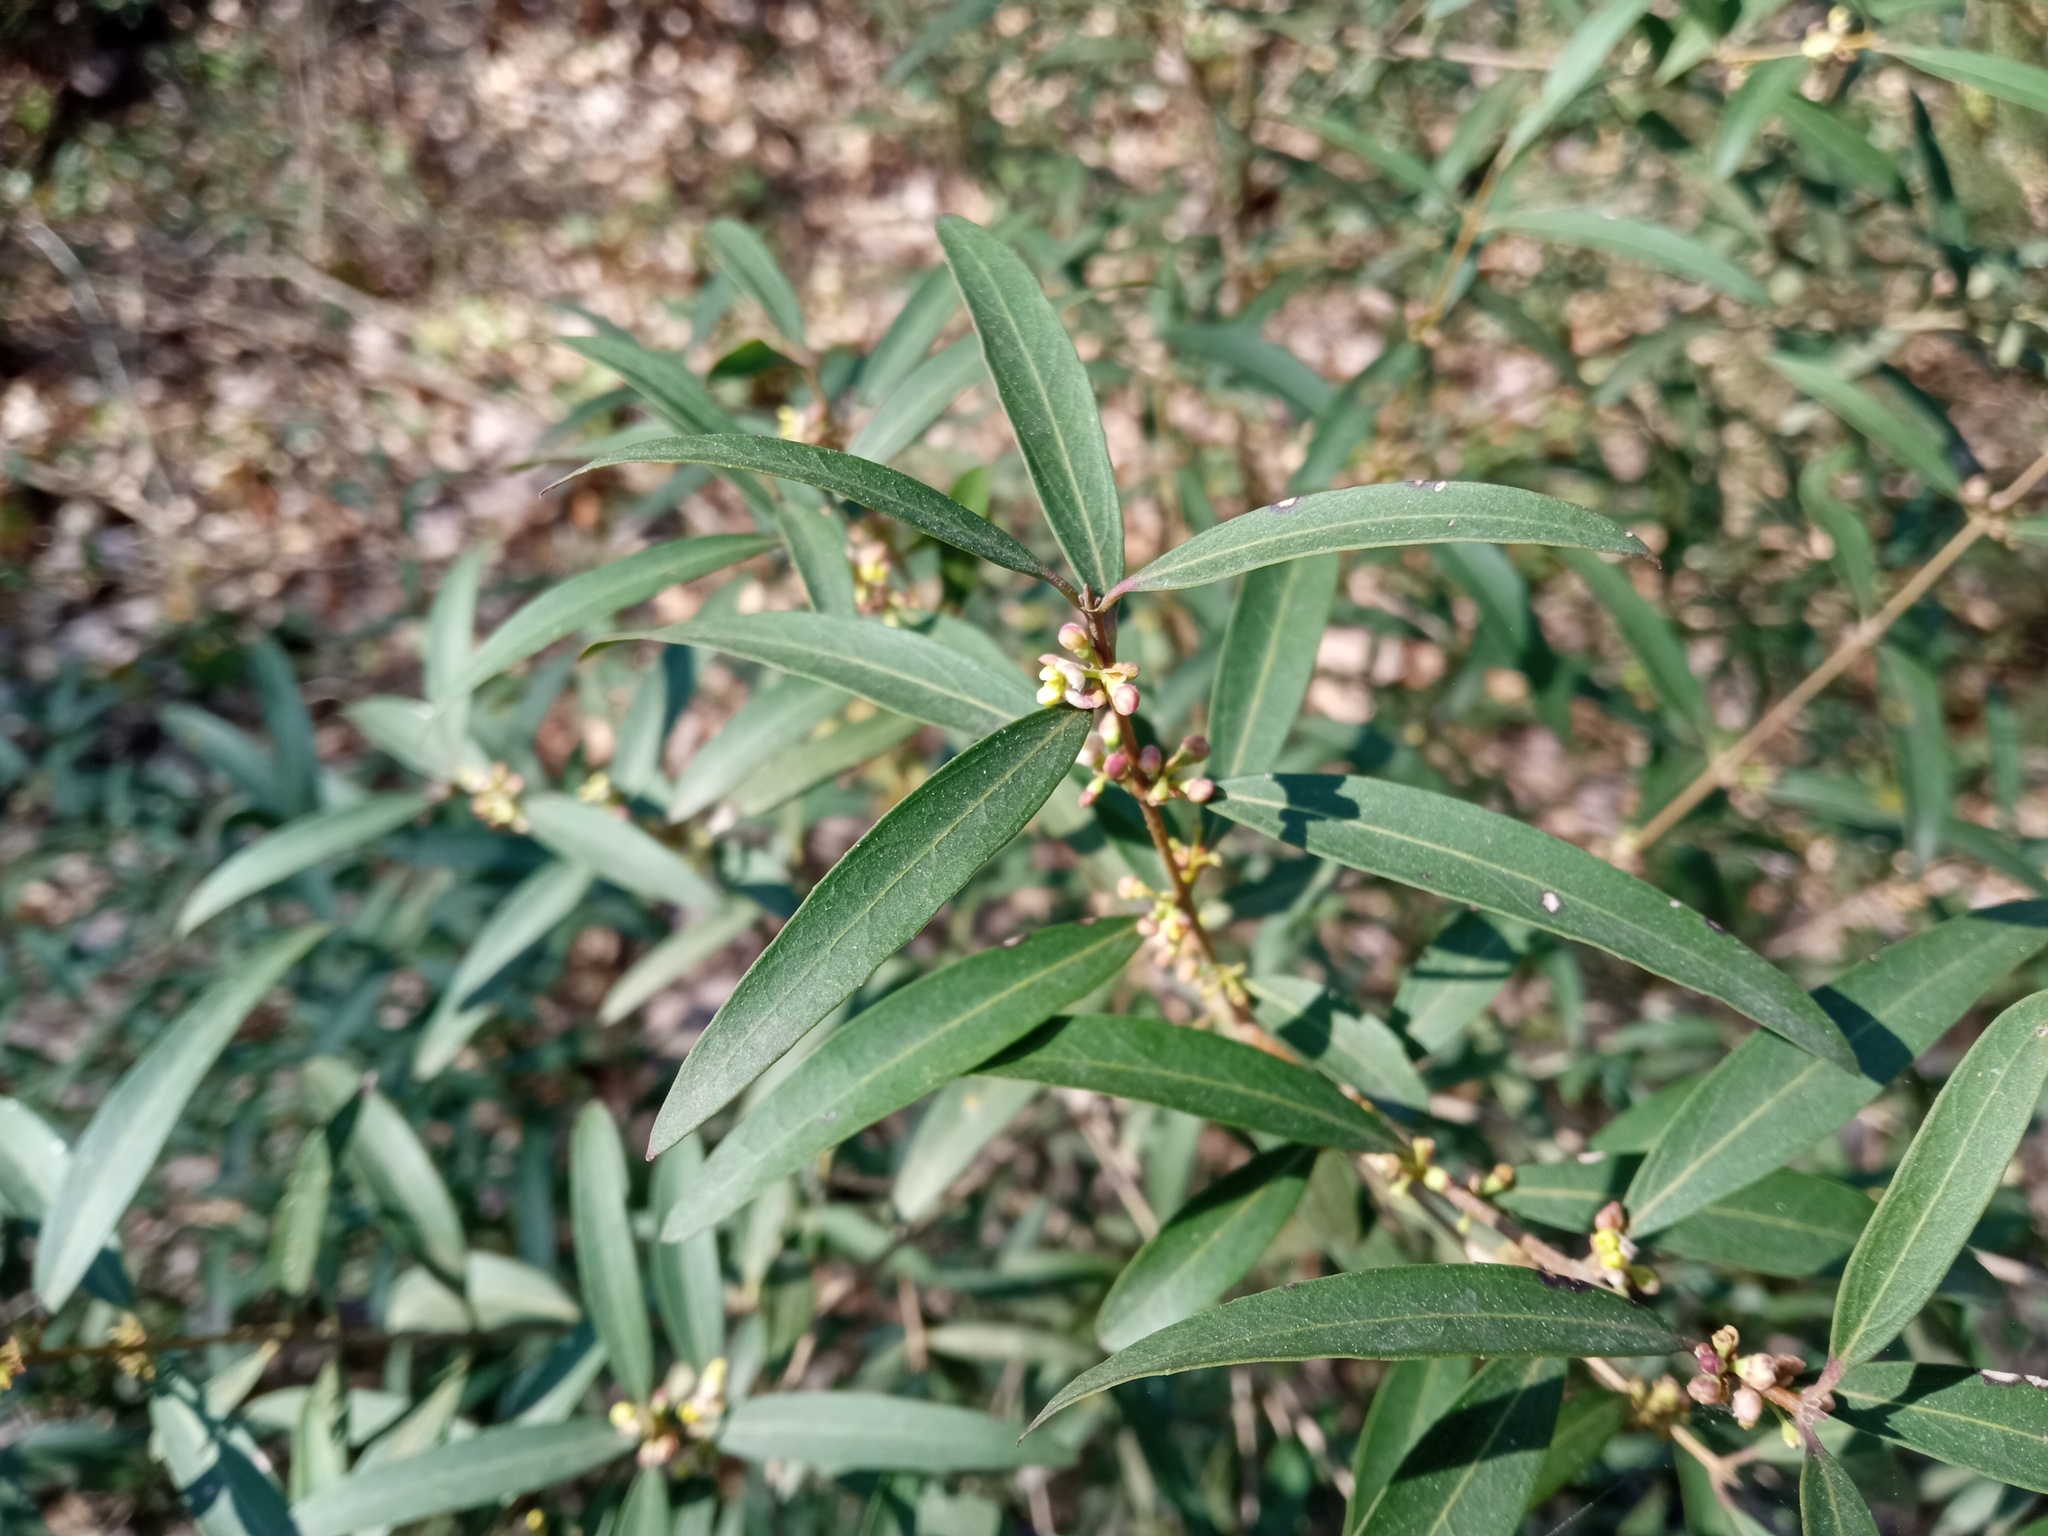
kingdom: Plantae
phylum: Tracheophyta
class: Magnoliopsida
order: Lamiales
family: Oleaceae
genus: Phillyrea
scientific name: Phillyrea angustifolia
